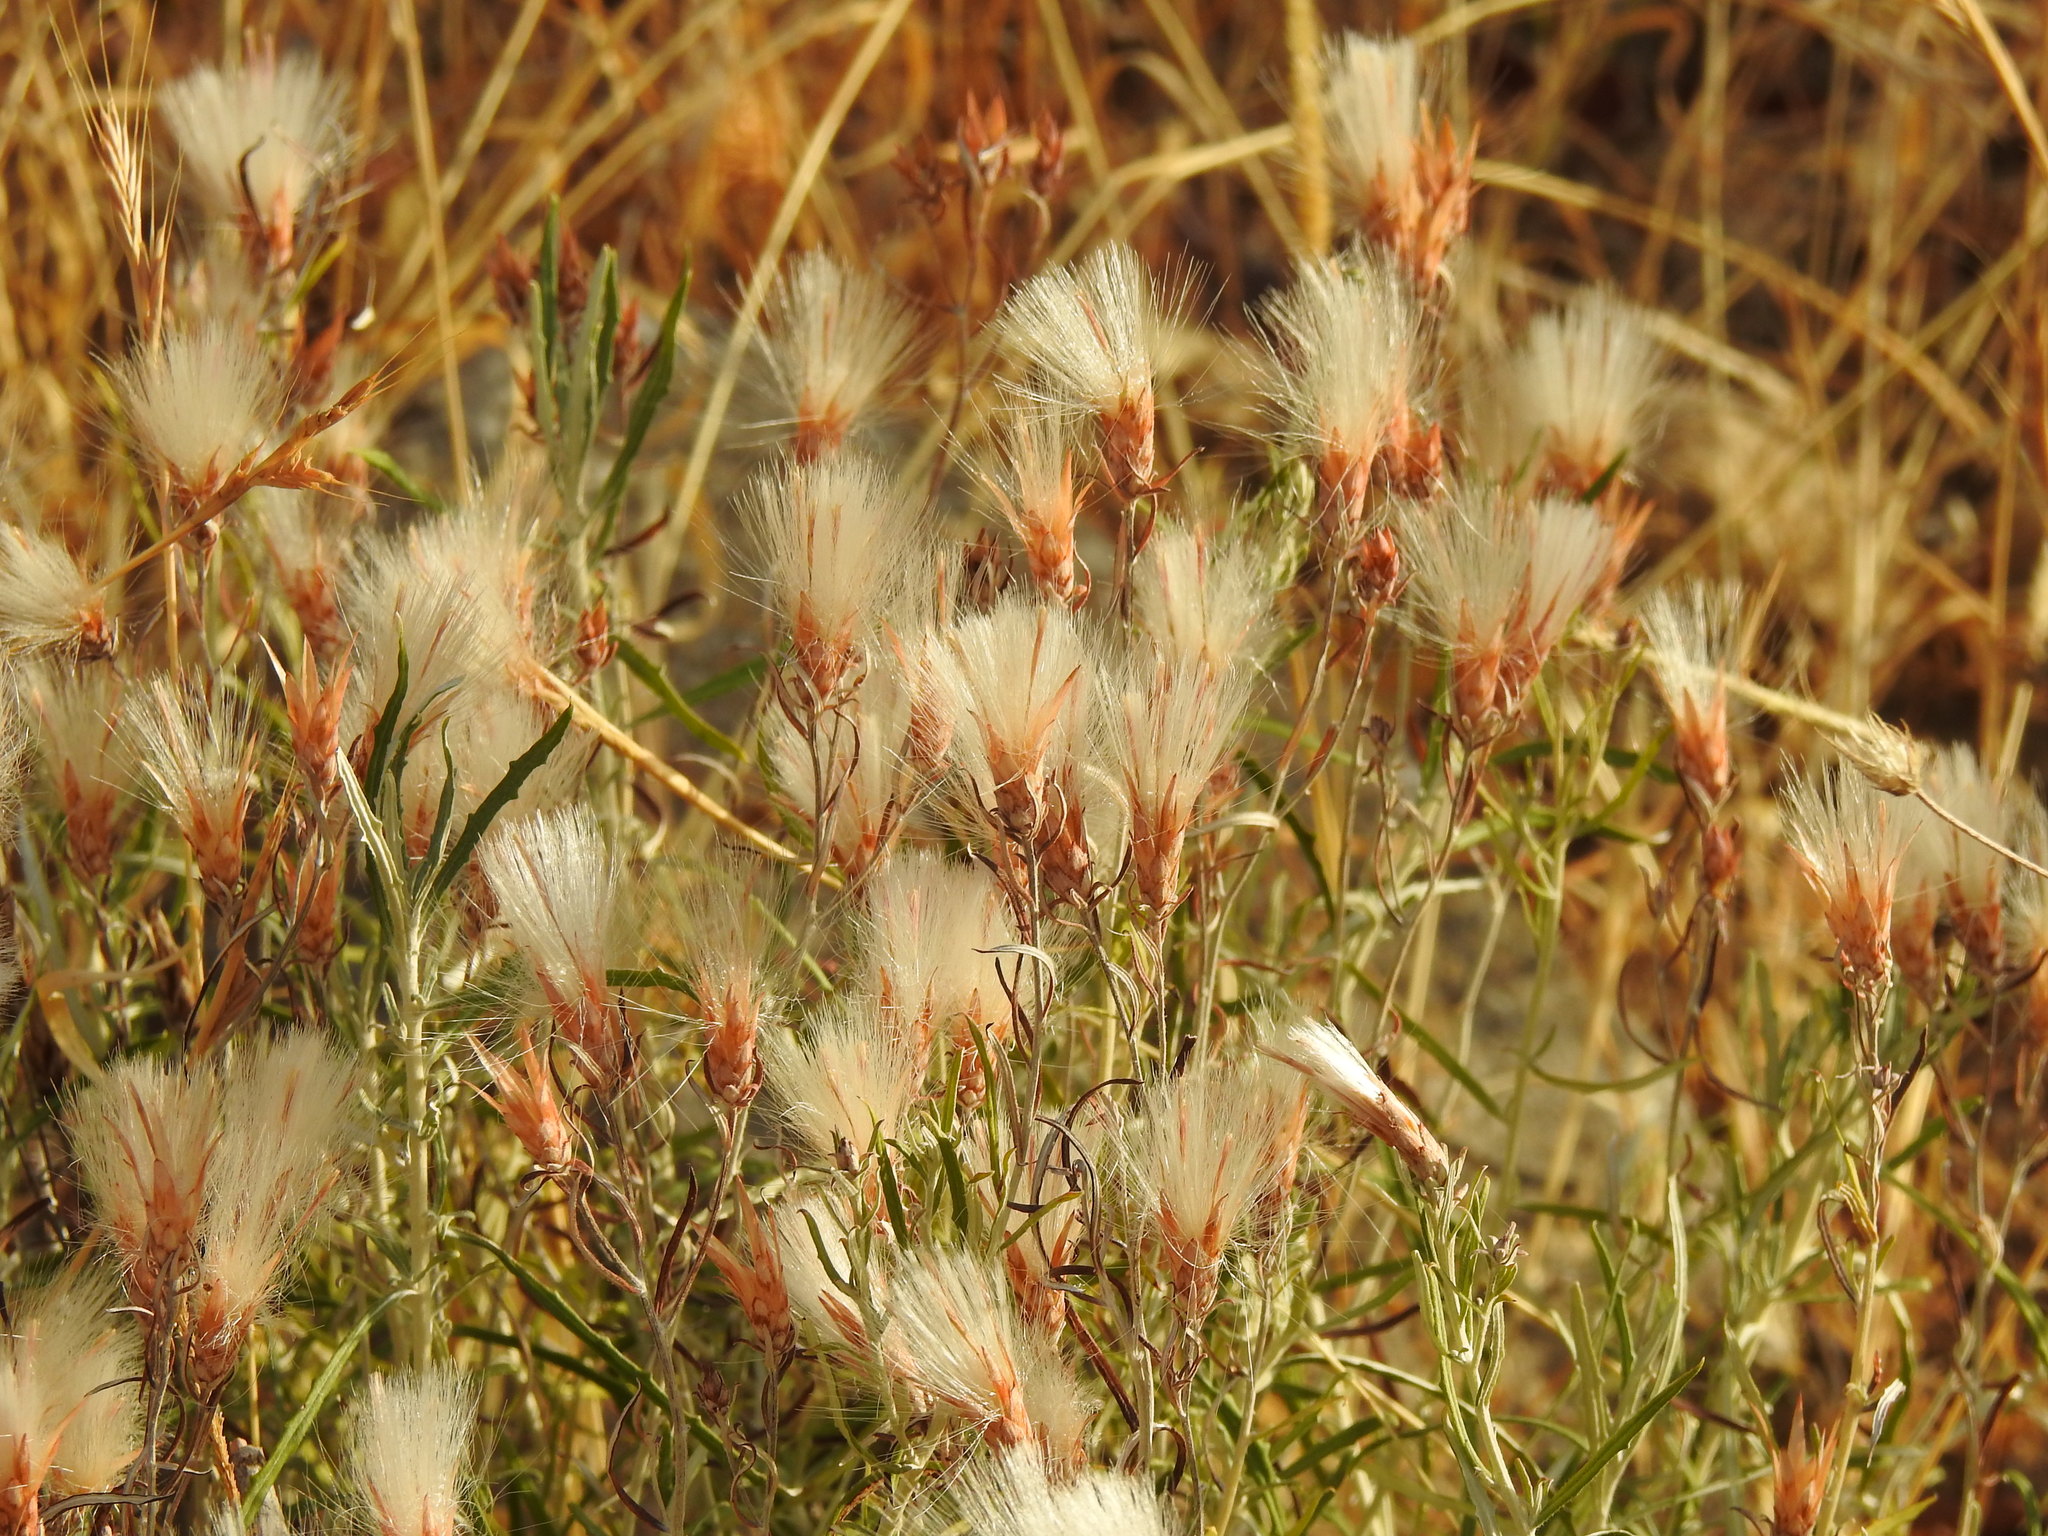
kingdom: Plantae
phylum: Tracheophyta
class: Magnoliopsida
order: Asterales
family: Asteraceae
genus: Staehelina
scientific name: Staehelina dubia
